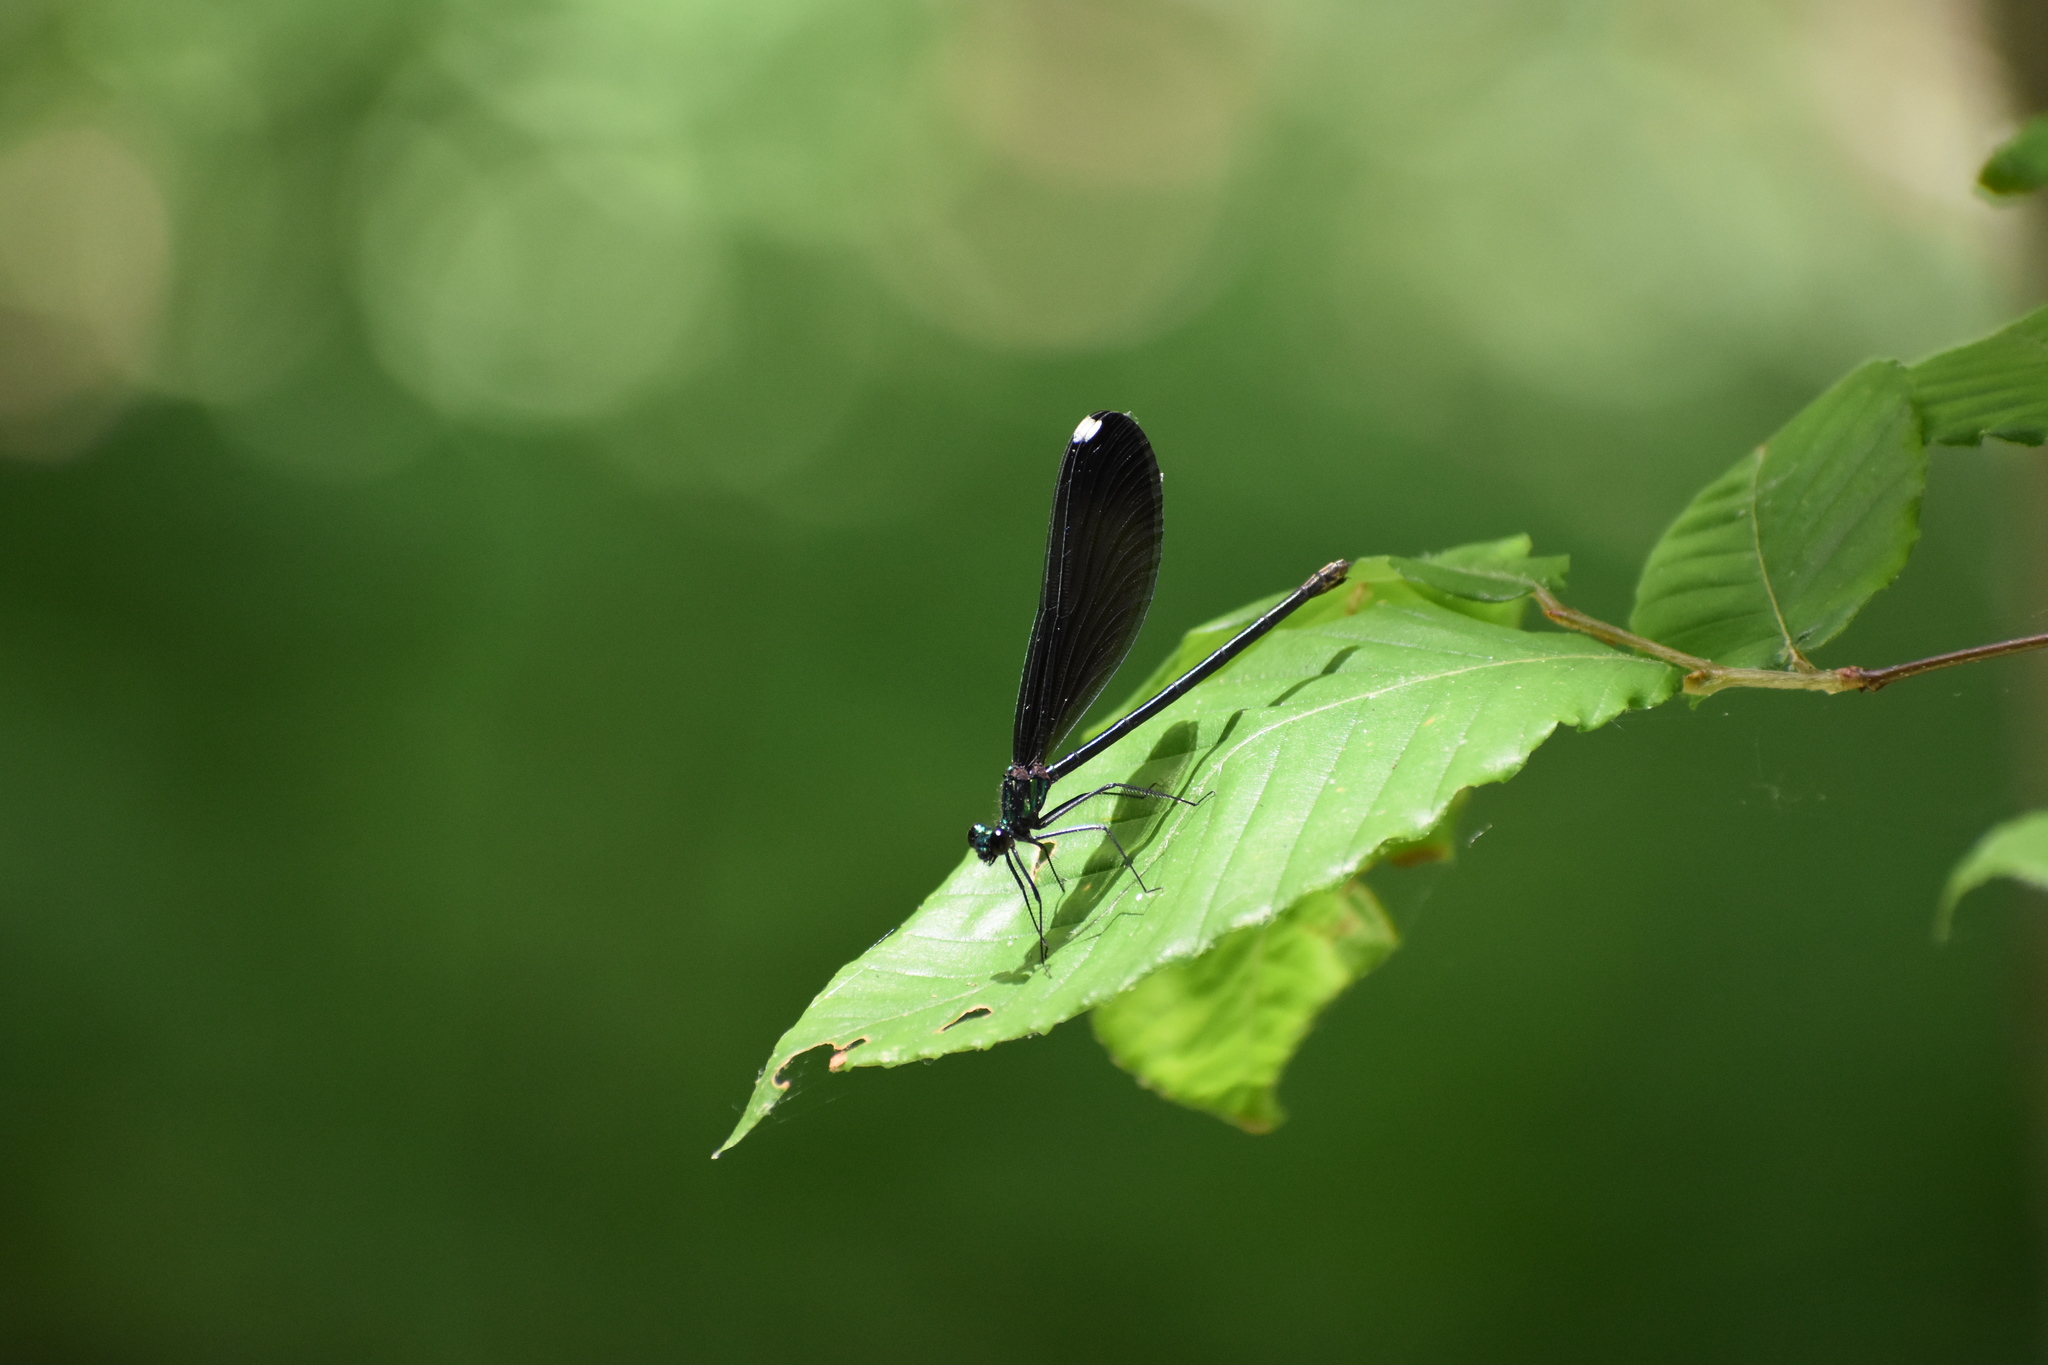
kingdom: Animalia
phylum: Arthropoda
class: Insecta
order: Odonata
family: Calopterygidae
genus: Calopteryx
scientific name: Calopteryx maculata
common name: Ebony jewelwing
